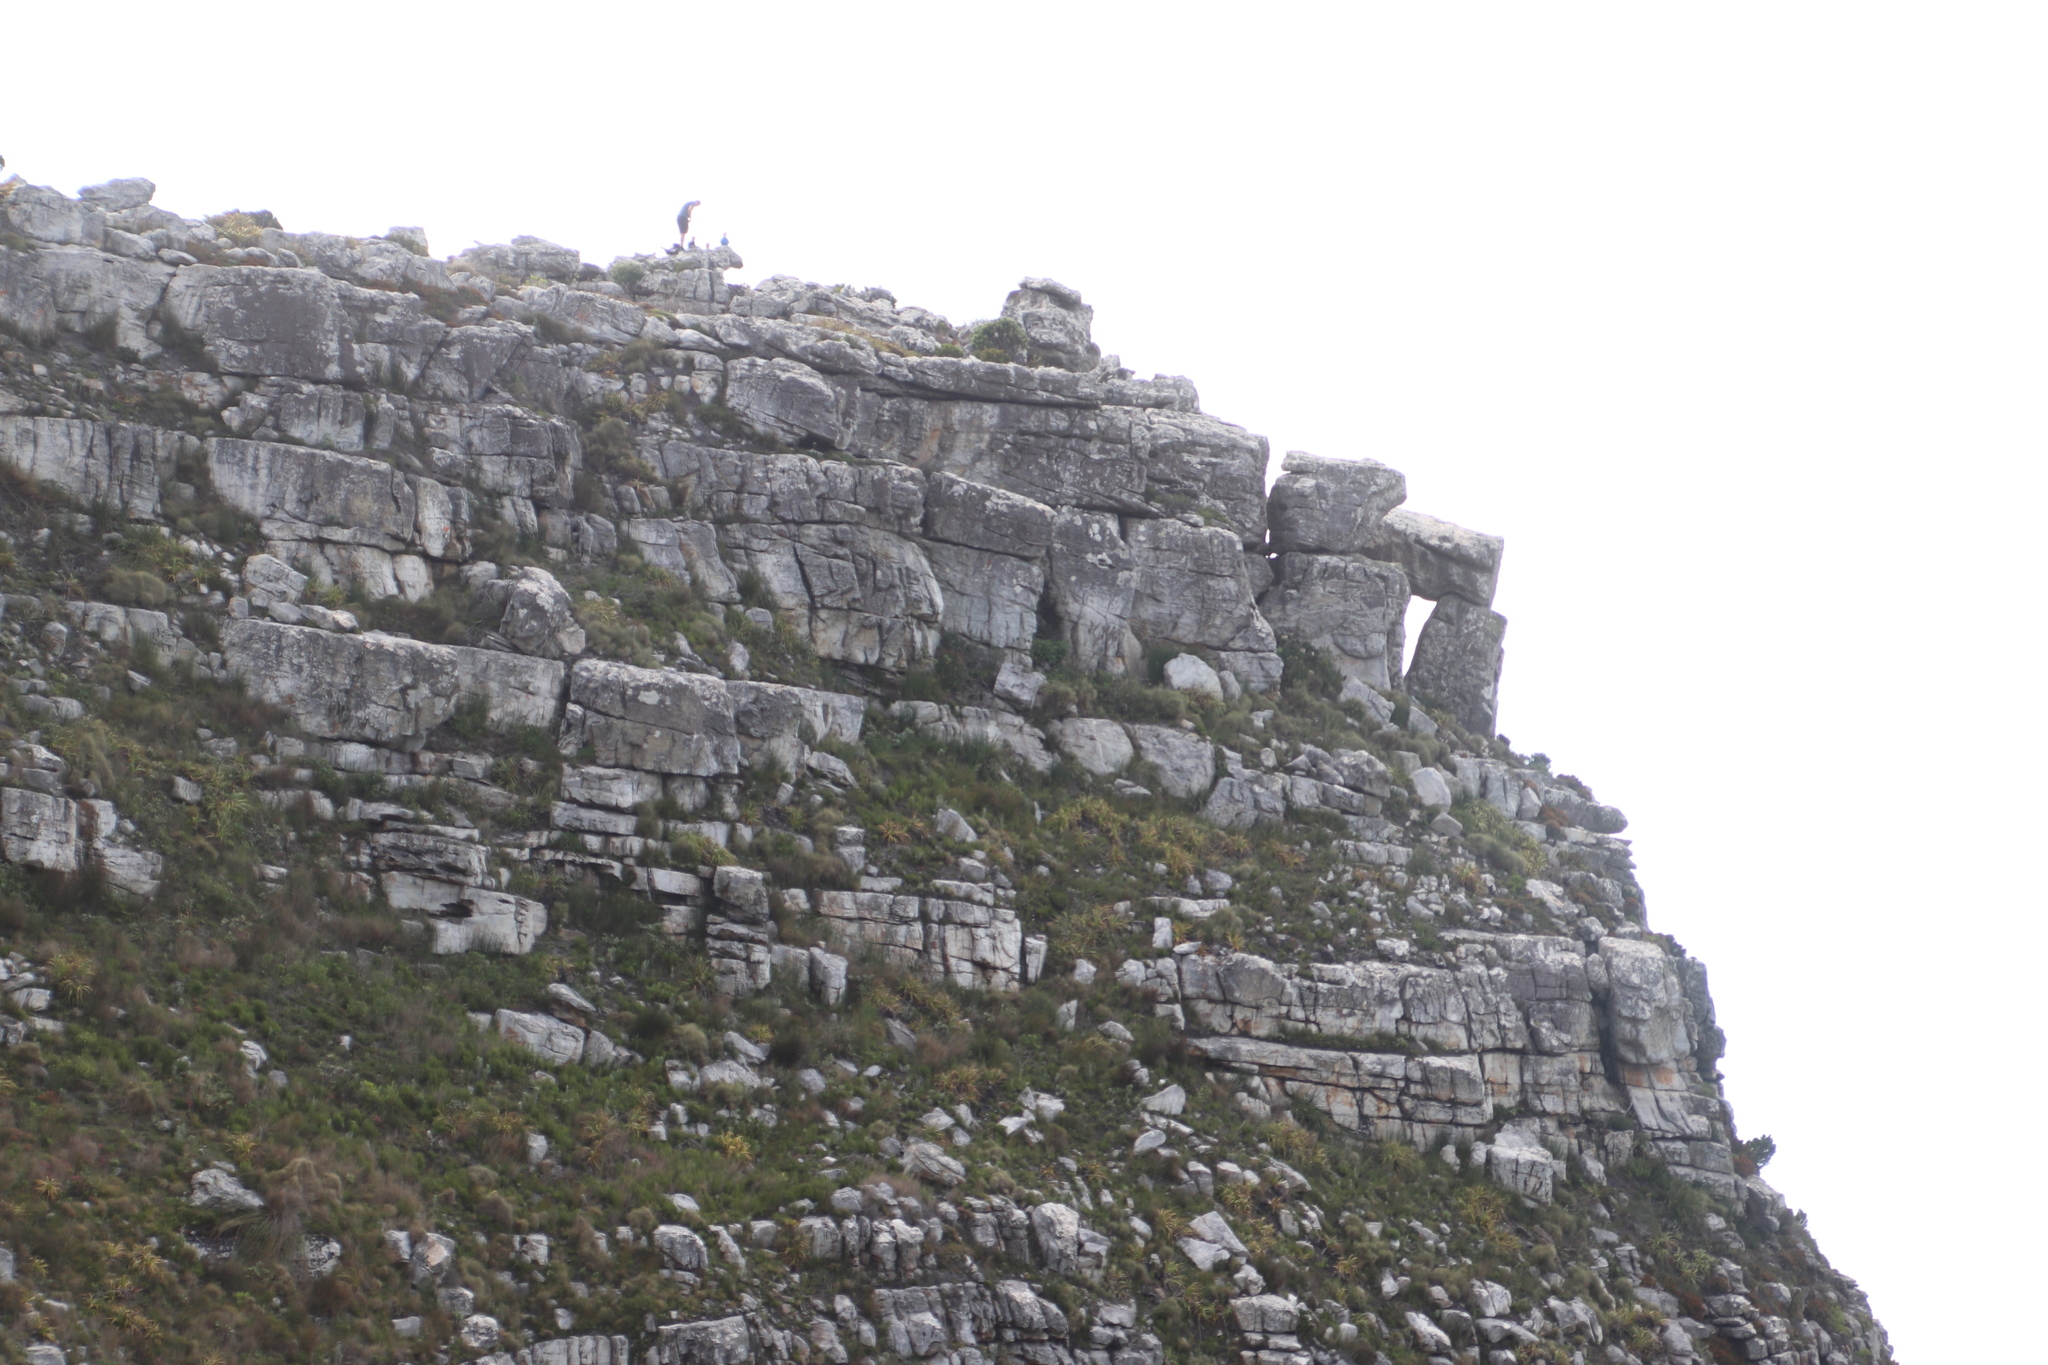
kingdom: Plantae
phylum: Tracheophyta
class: Liliopsida
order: Poales
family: Cyperaceae
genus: Tetraria
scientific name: Tetraria thermalis
